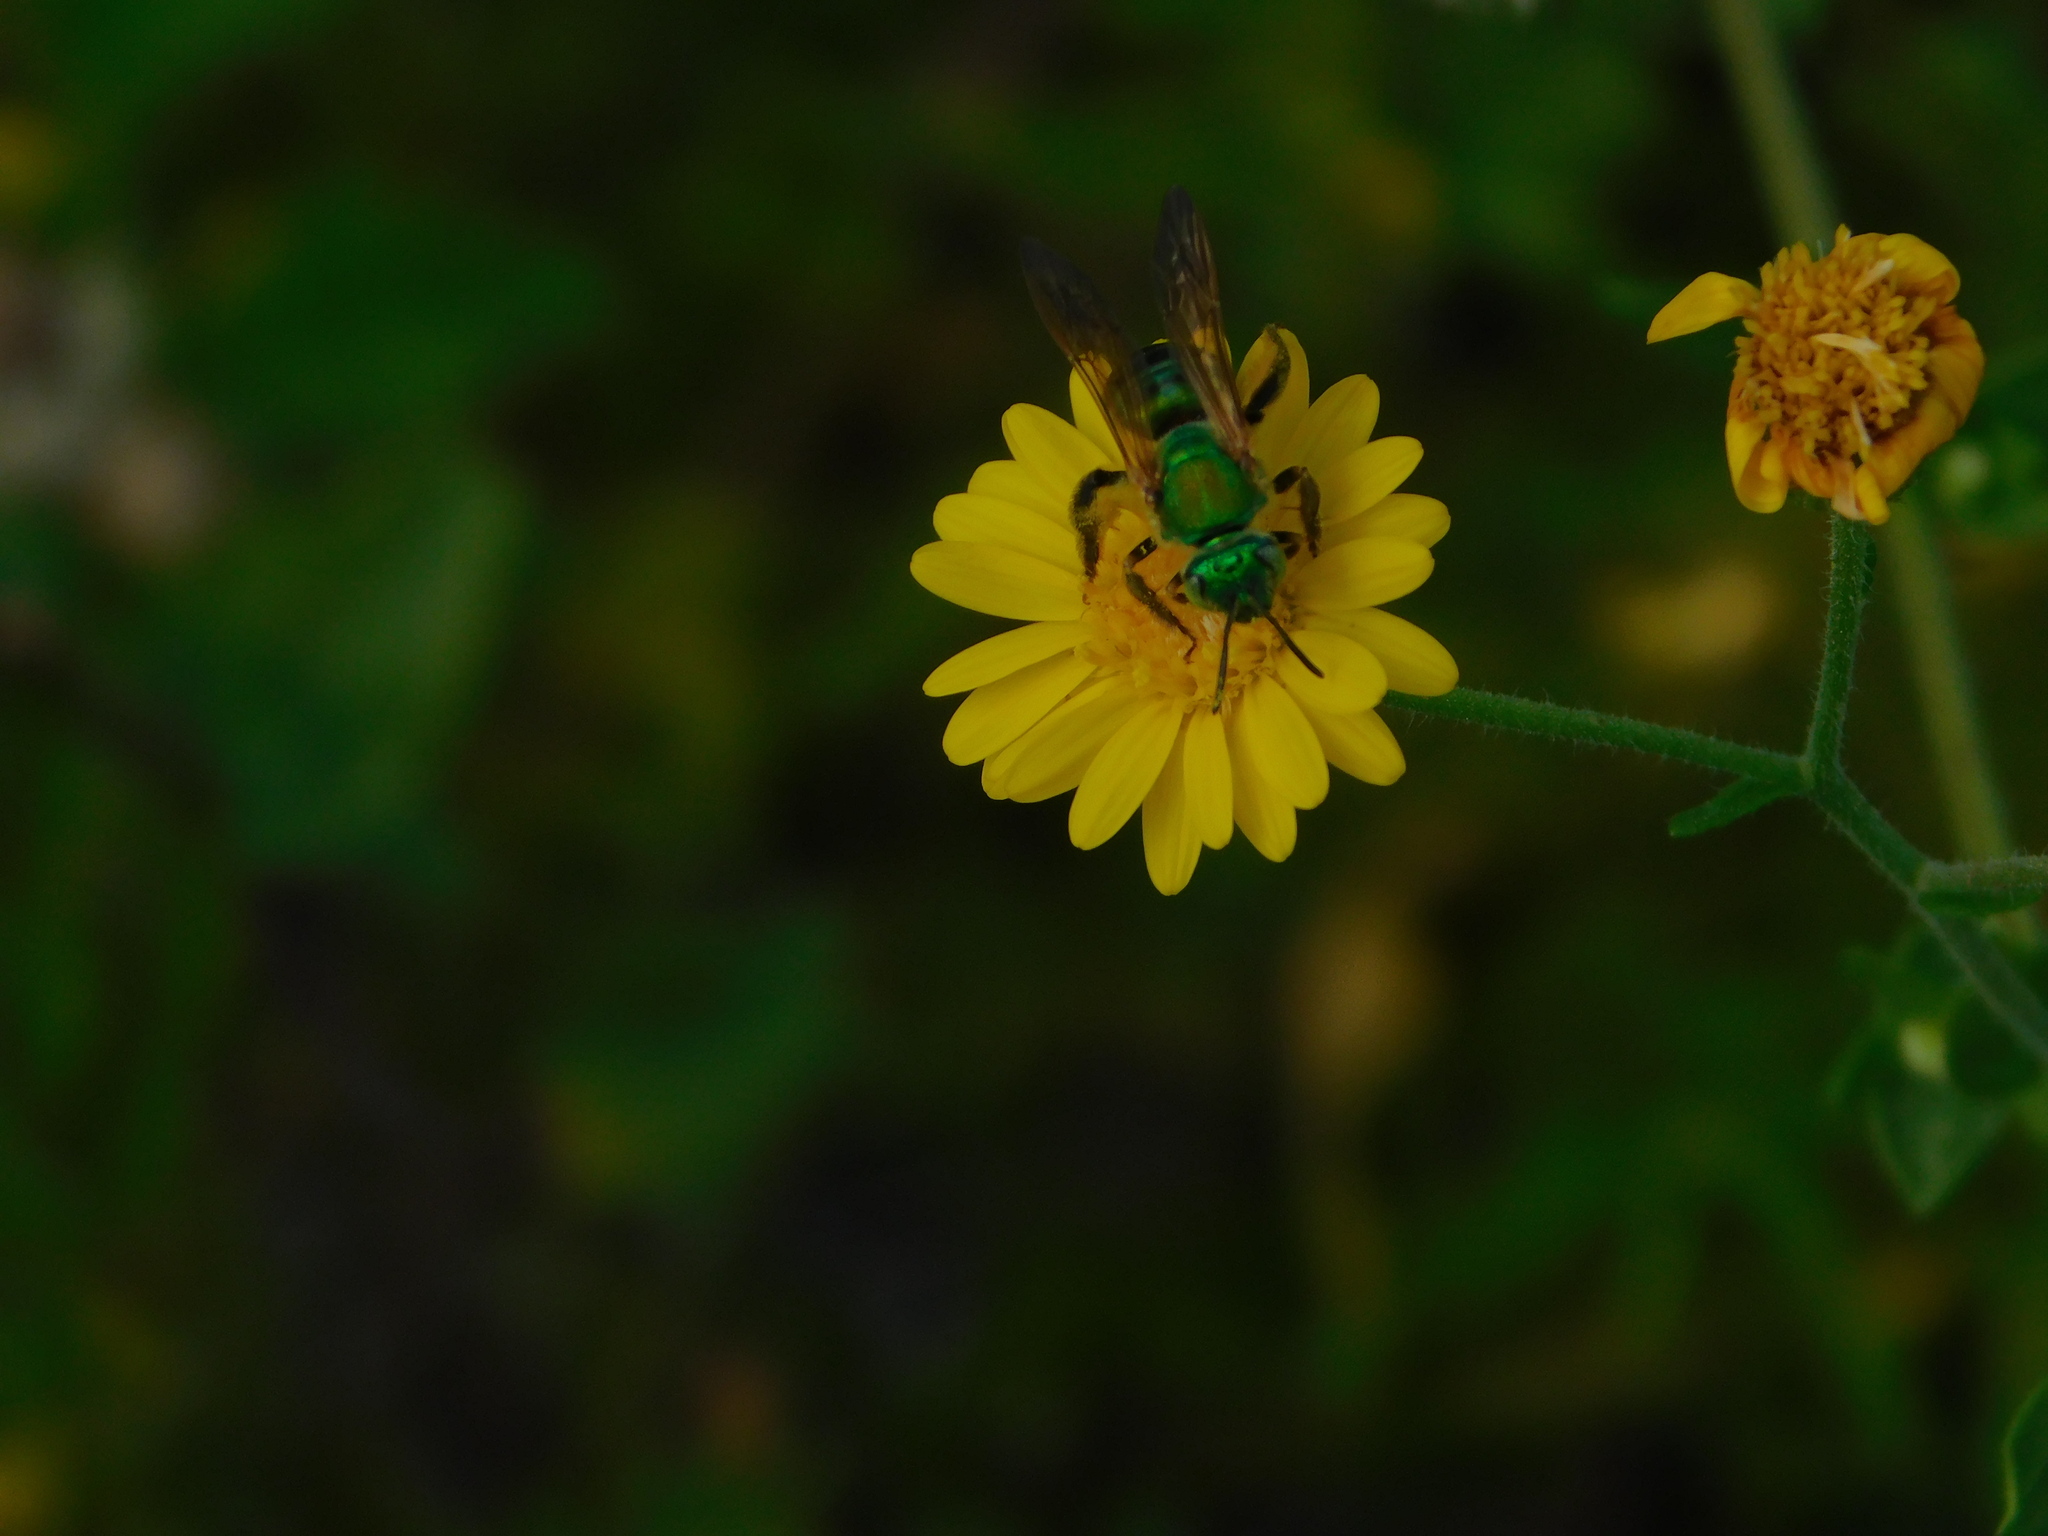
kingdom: Animalia
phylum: Arthropoda
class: Insecta
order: Hymenoptera
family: Halictidae
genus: Agapostemon
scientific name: Agapostemon splendens
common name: Brown-winged striped sweat bee
